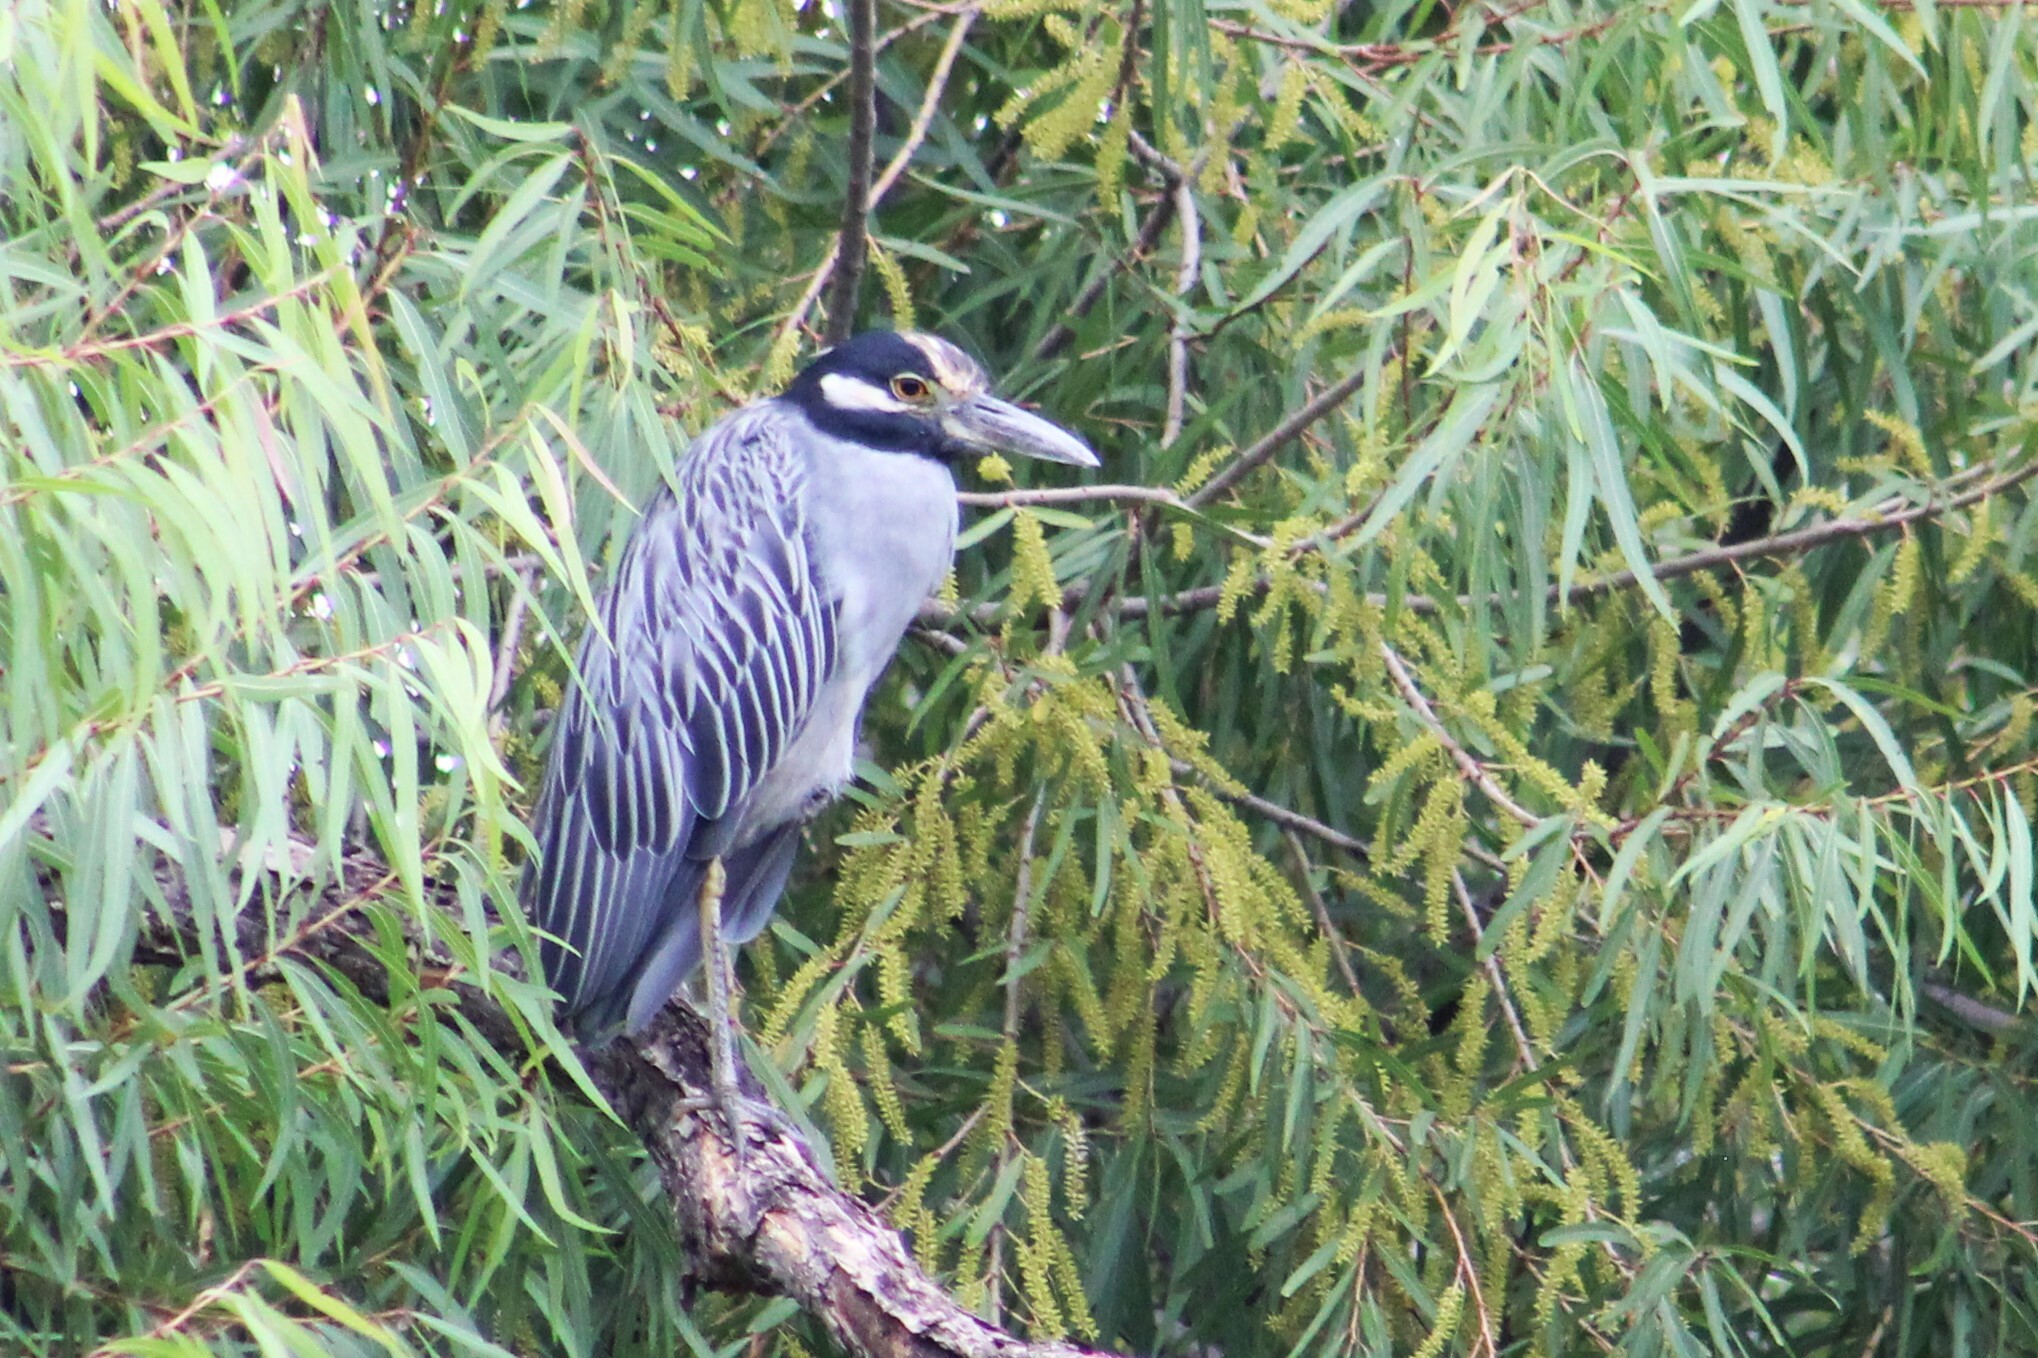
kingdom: Animalia
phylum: Chordata
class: Aves
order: Pelecaniformes
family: Ardeidae
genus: Nyctanassa
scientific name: Nyctanassa violacea
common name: Yellow-crowned night heron
